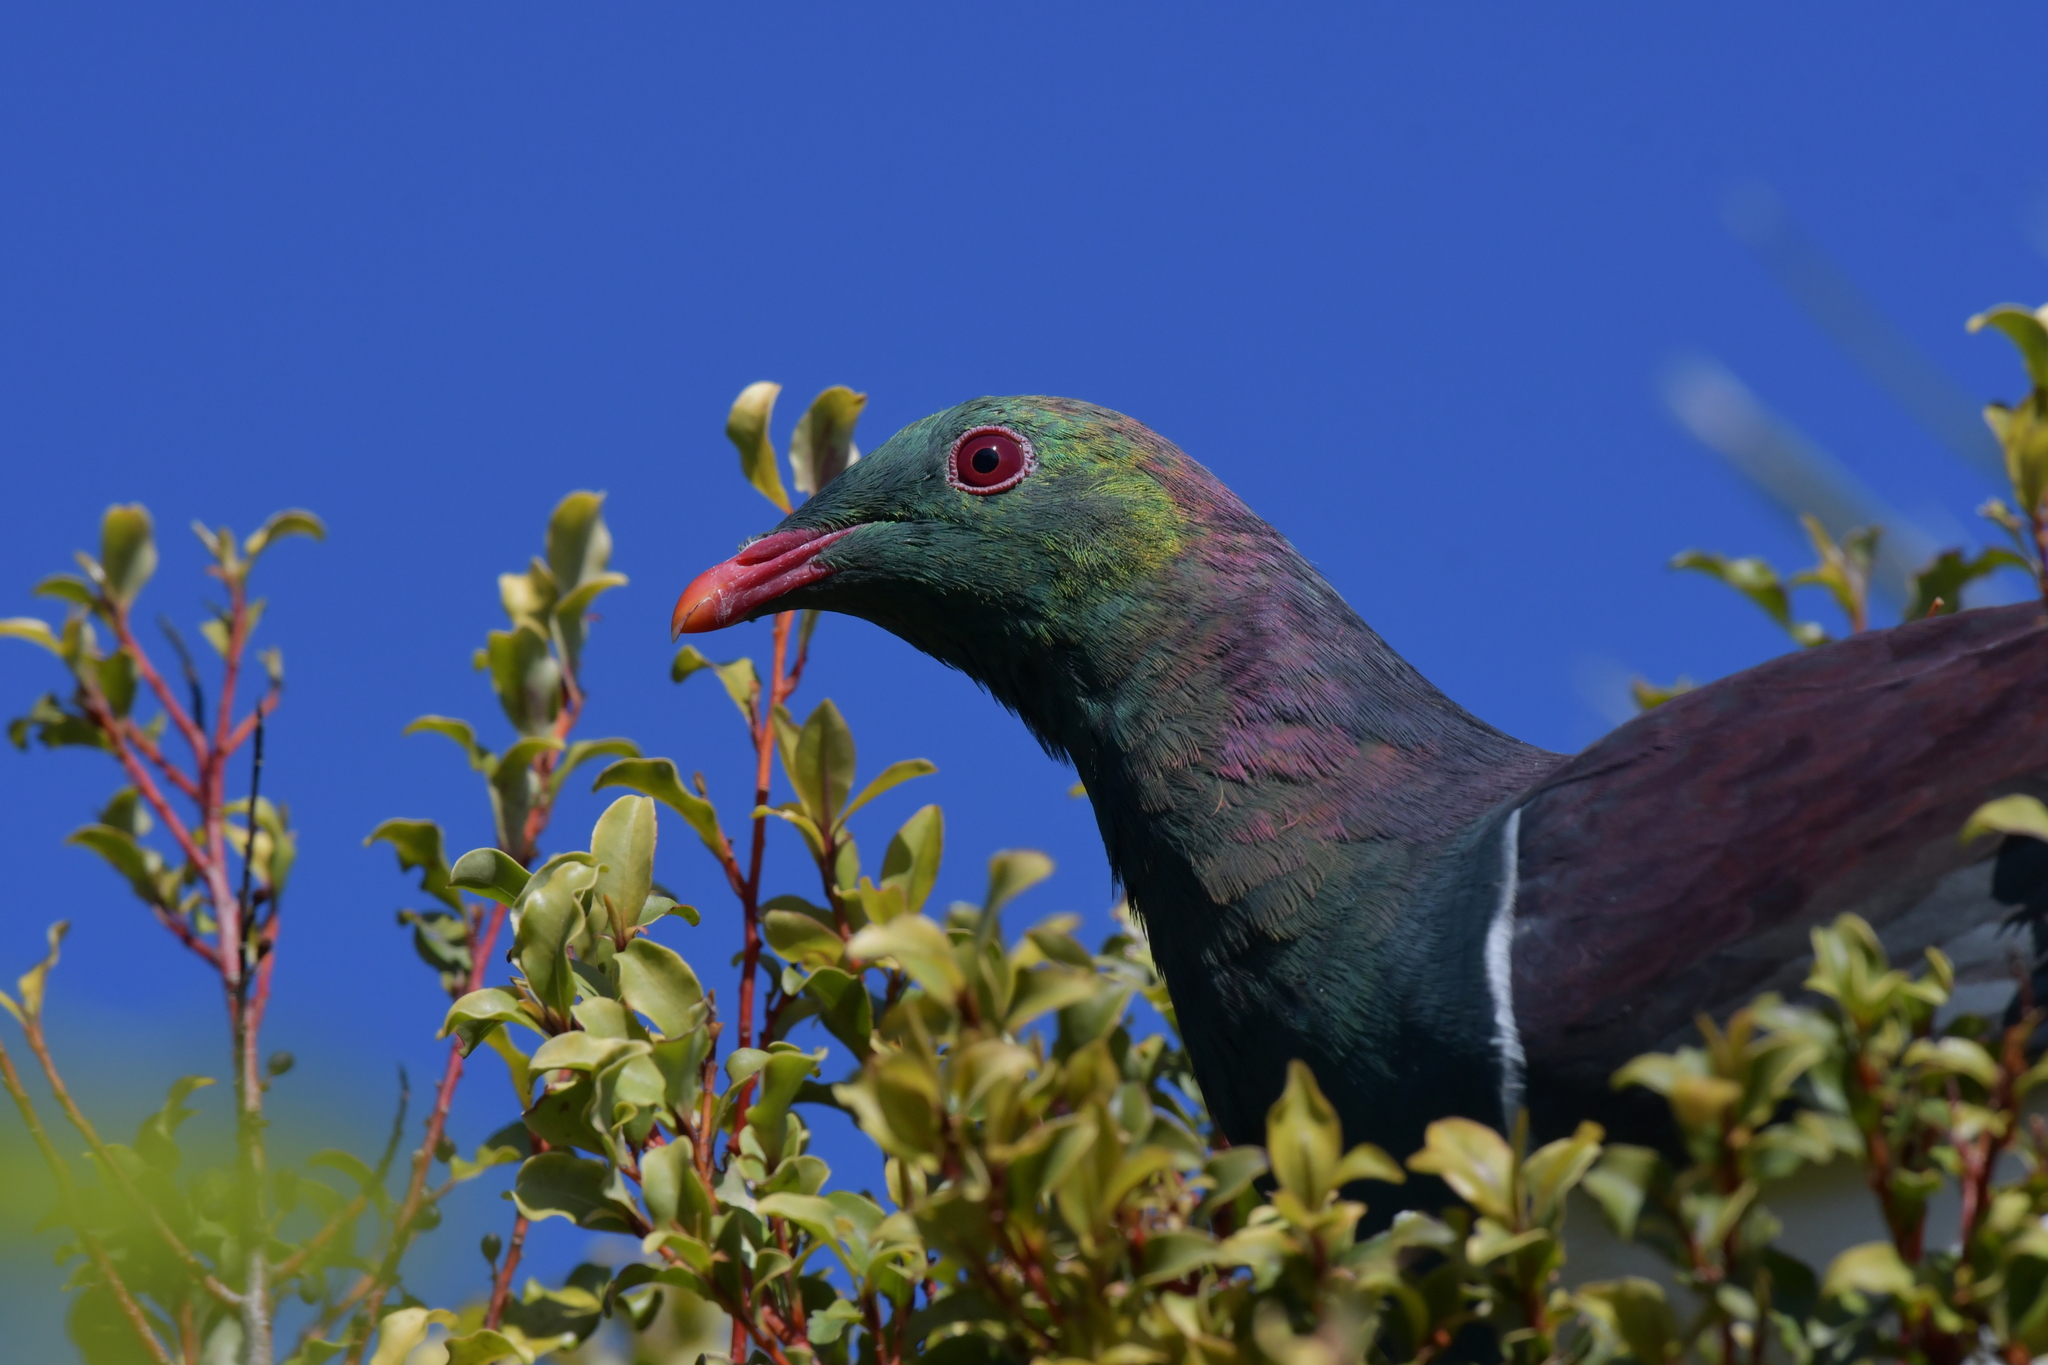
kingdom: Animalia
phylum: Chordata
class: Aves
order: Columbiformes
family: Columbidae
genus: Hemiphaga
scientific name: Hemiphaga novaeseelandiae
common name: New zealand pigeon
